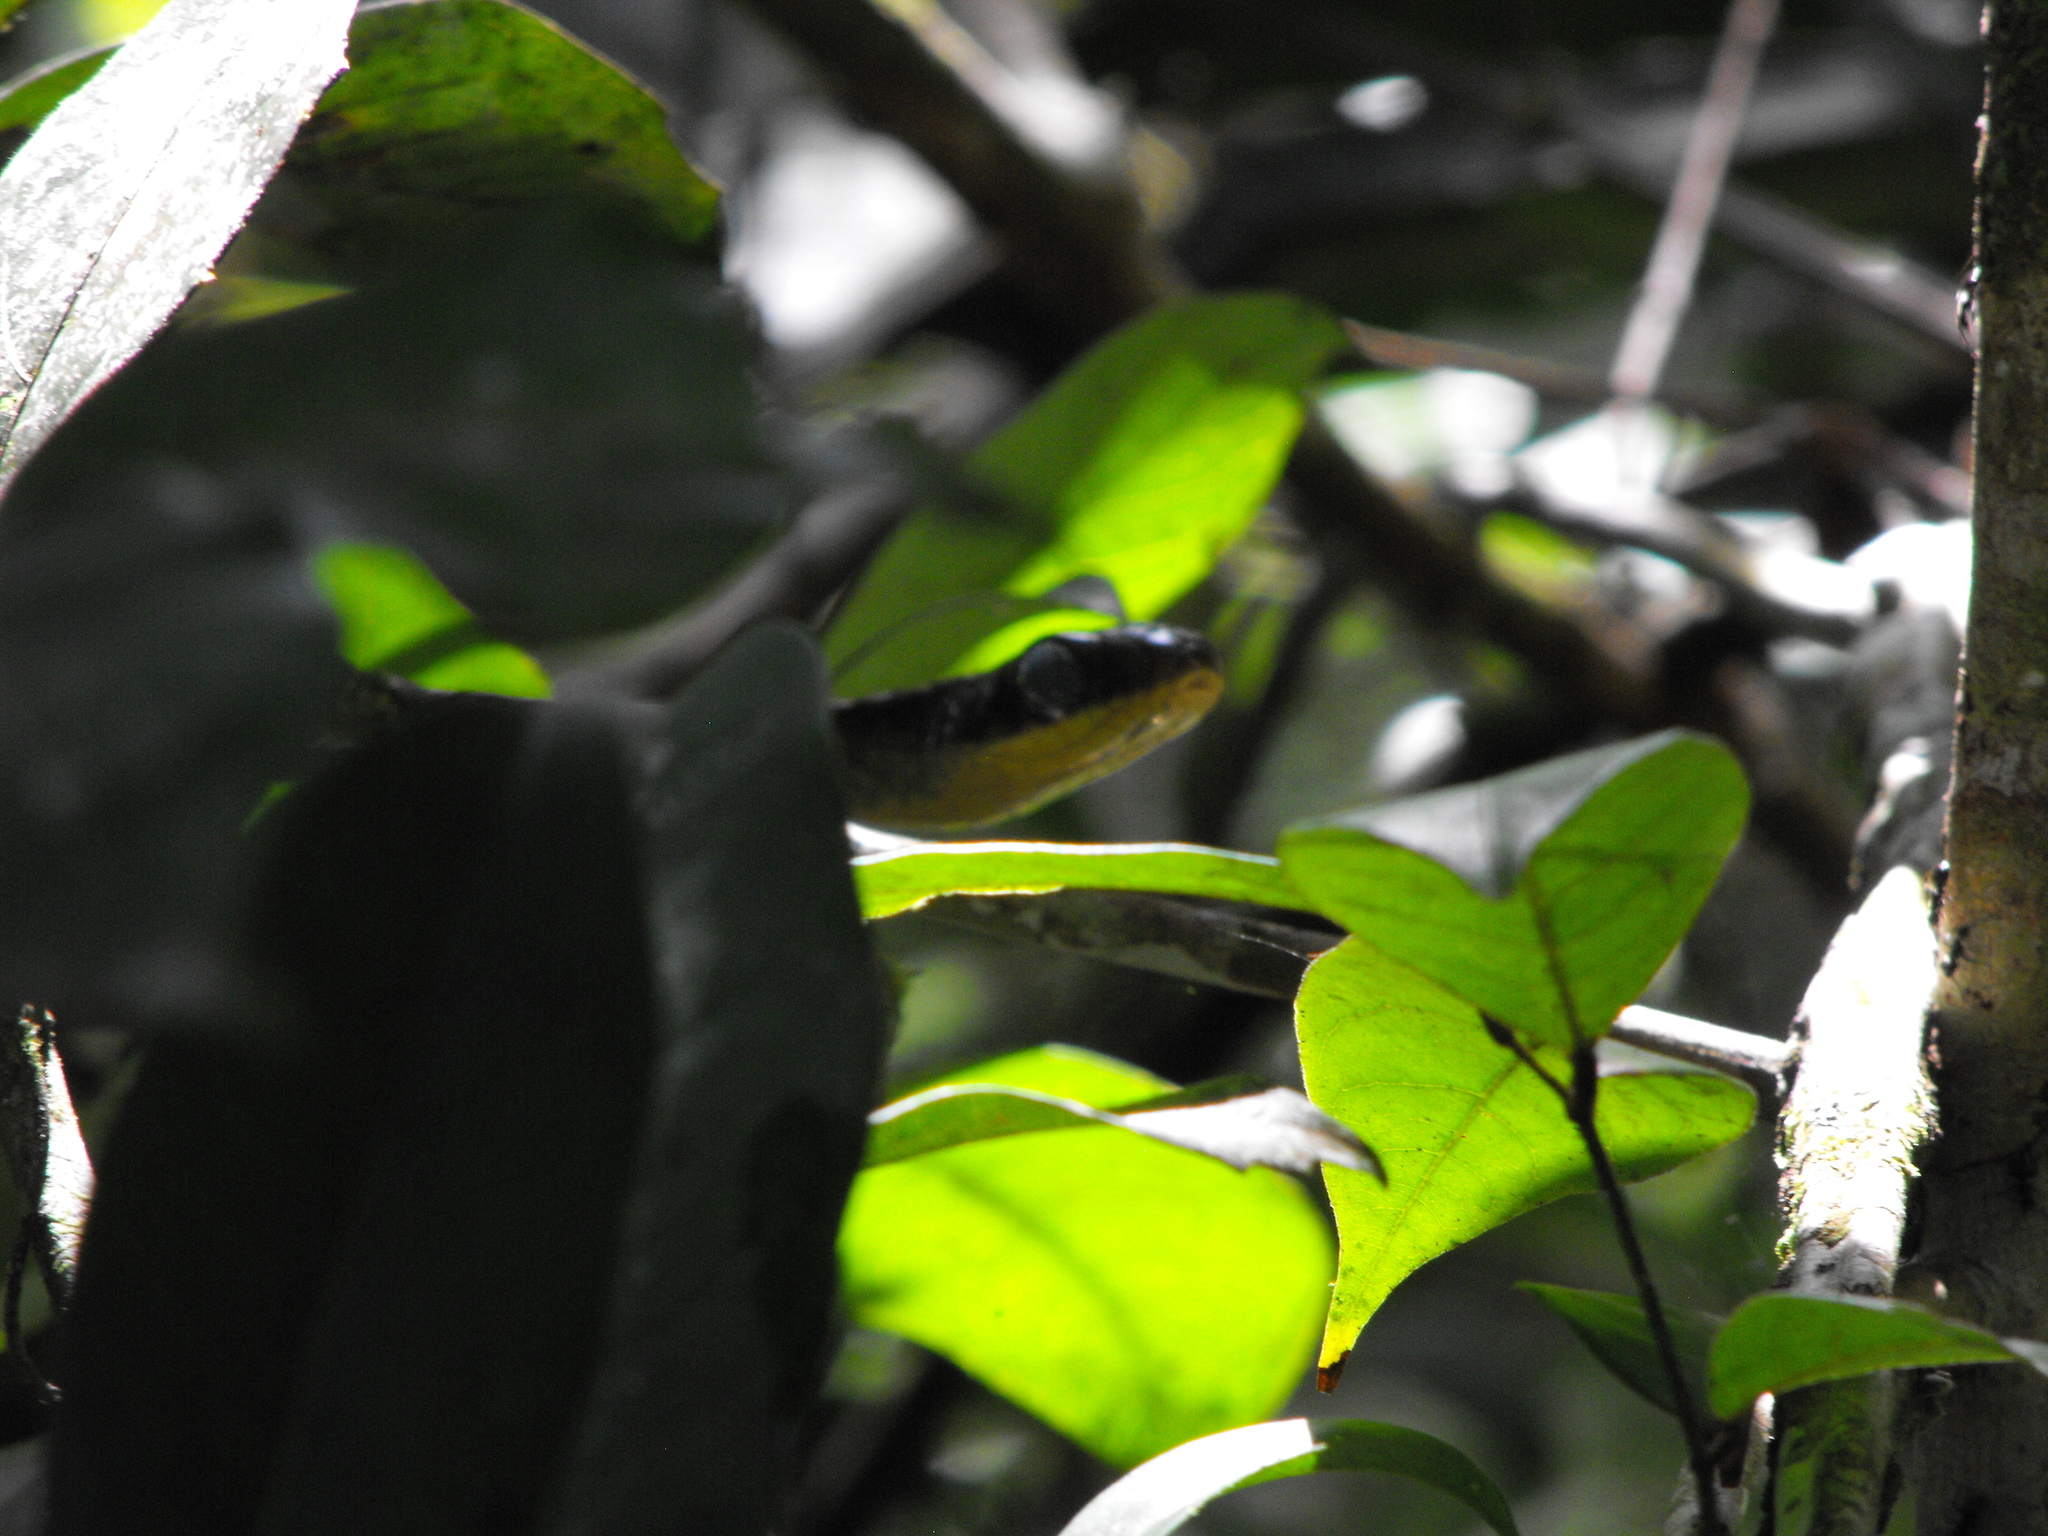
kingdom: Animalia
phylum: Chordata
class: Squamata
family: Colubridae
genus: Chironius
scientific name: Chironius multiventris
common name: South american sipo
